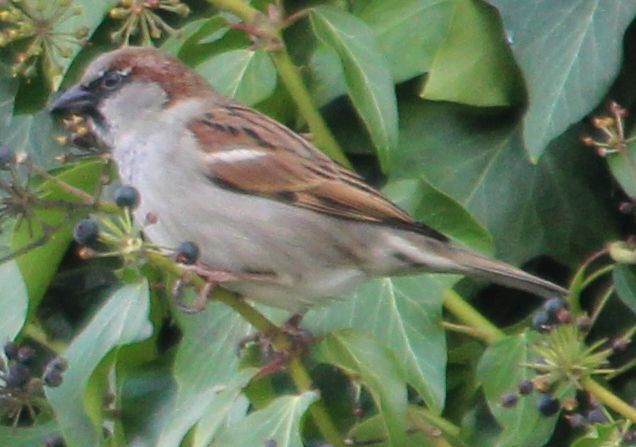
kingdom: Animalia
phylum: Chordata
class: Aves
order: Passeriformes
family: Passeridae
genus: Passer
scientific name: Passer domesticus
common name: House sparrow
